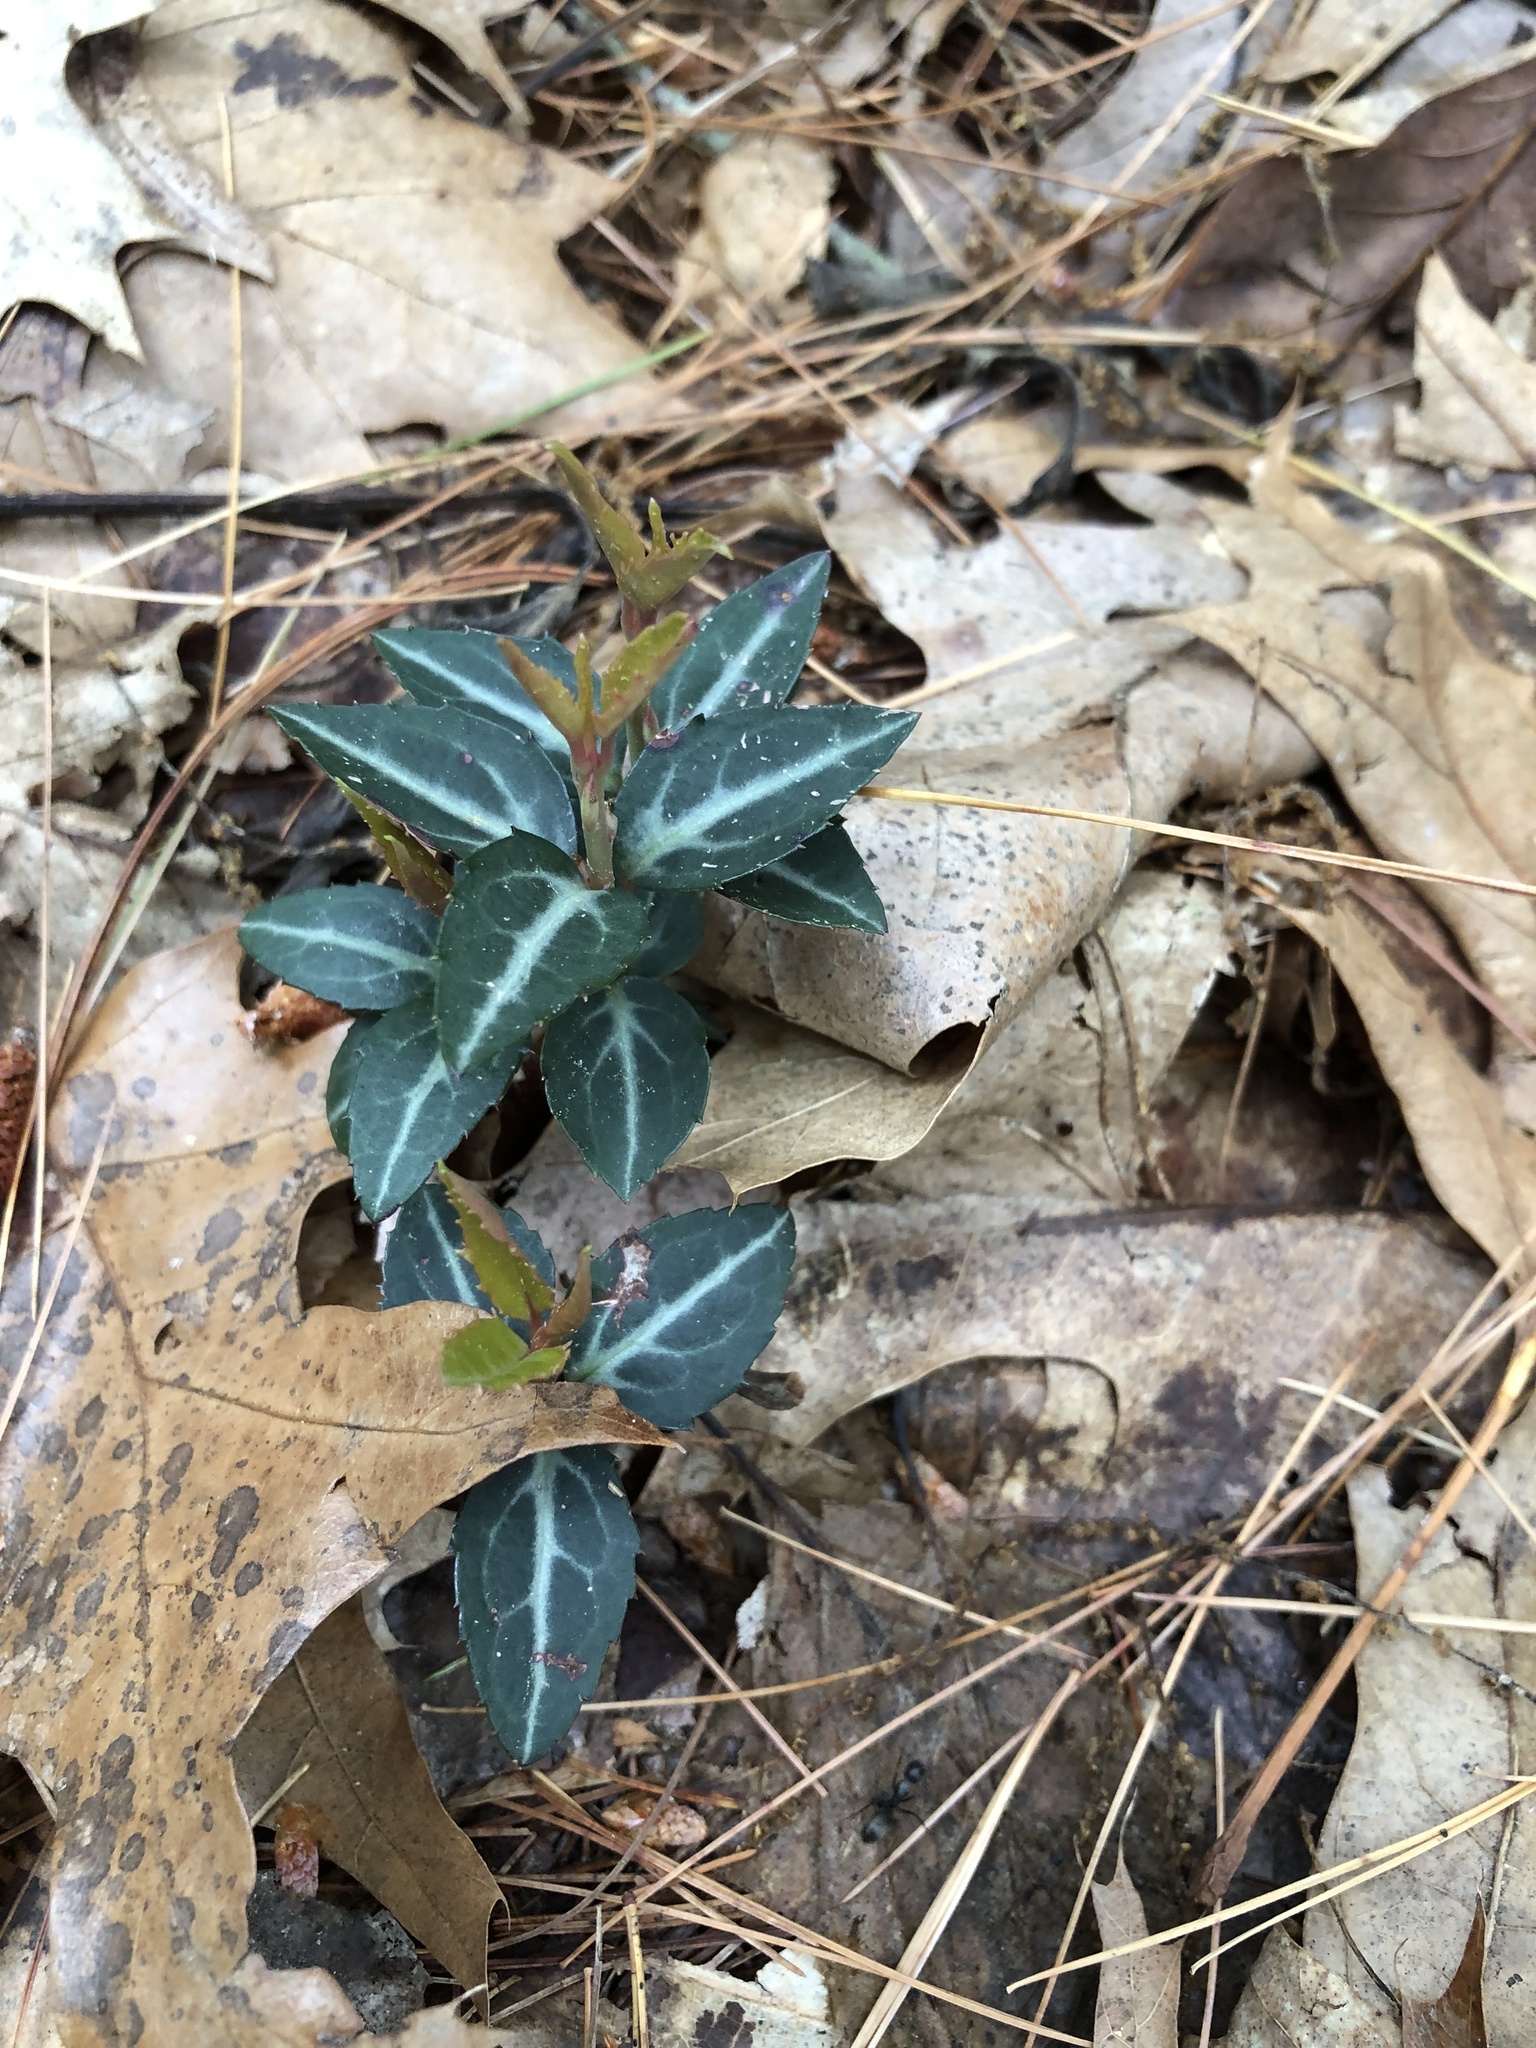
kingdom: Plantae
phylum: Tracheophyta
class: Magnoliopsida
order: Ericales
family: Ericaceae
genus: Chimaphila
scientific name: Chimaphila maculata
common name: Spotted pipsissewa
